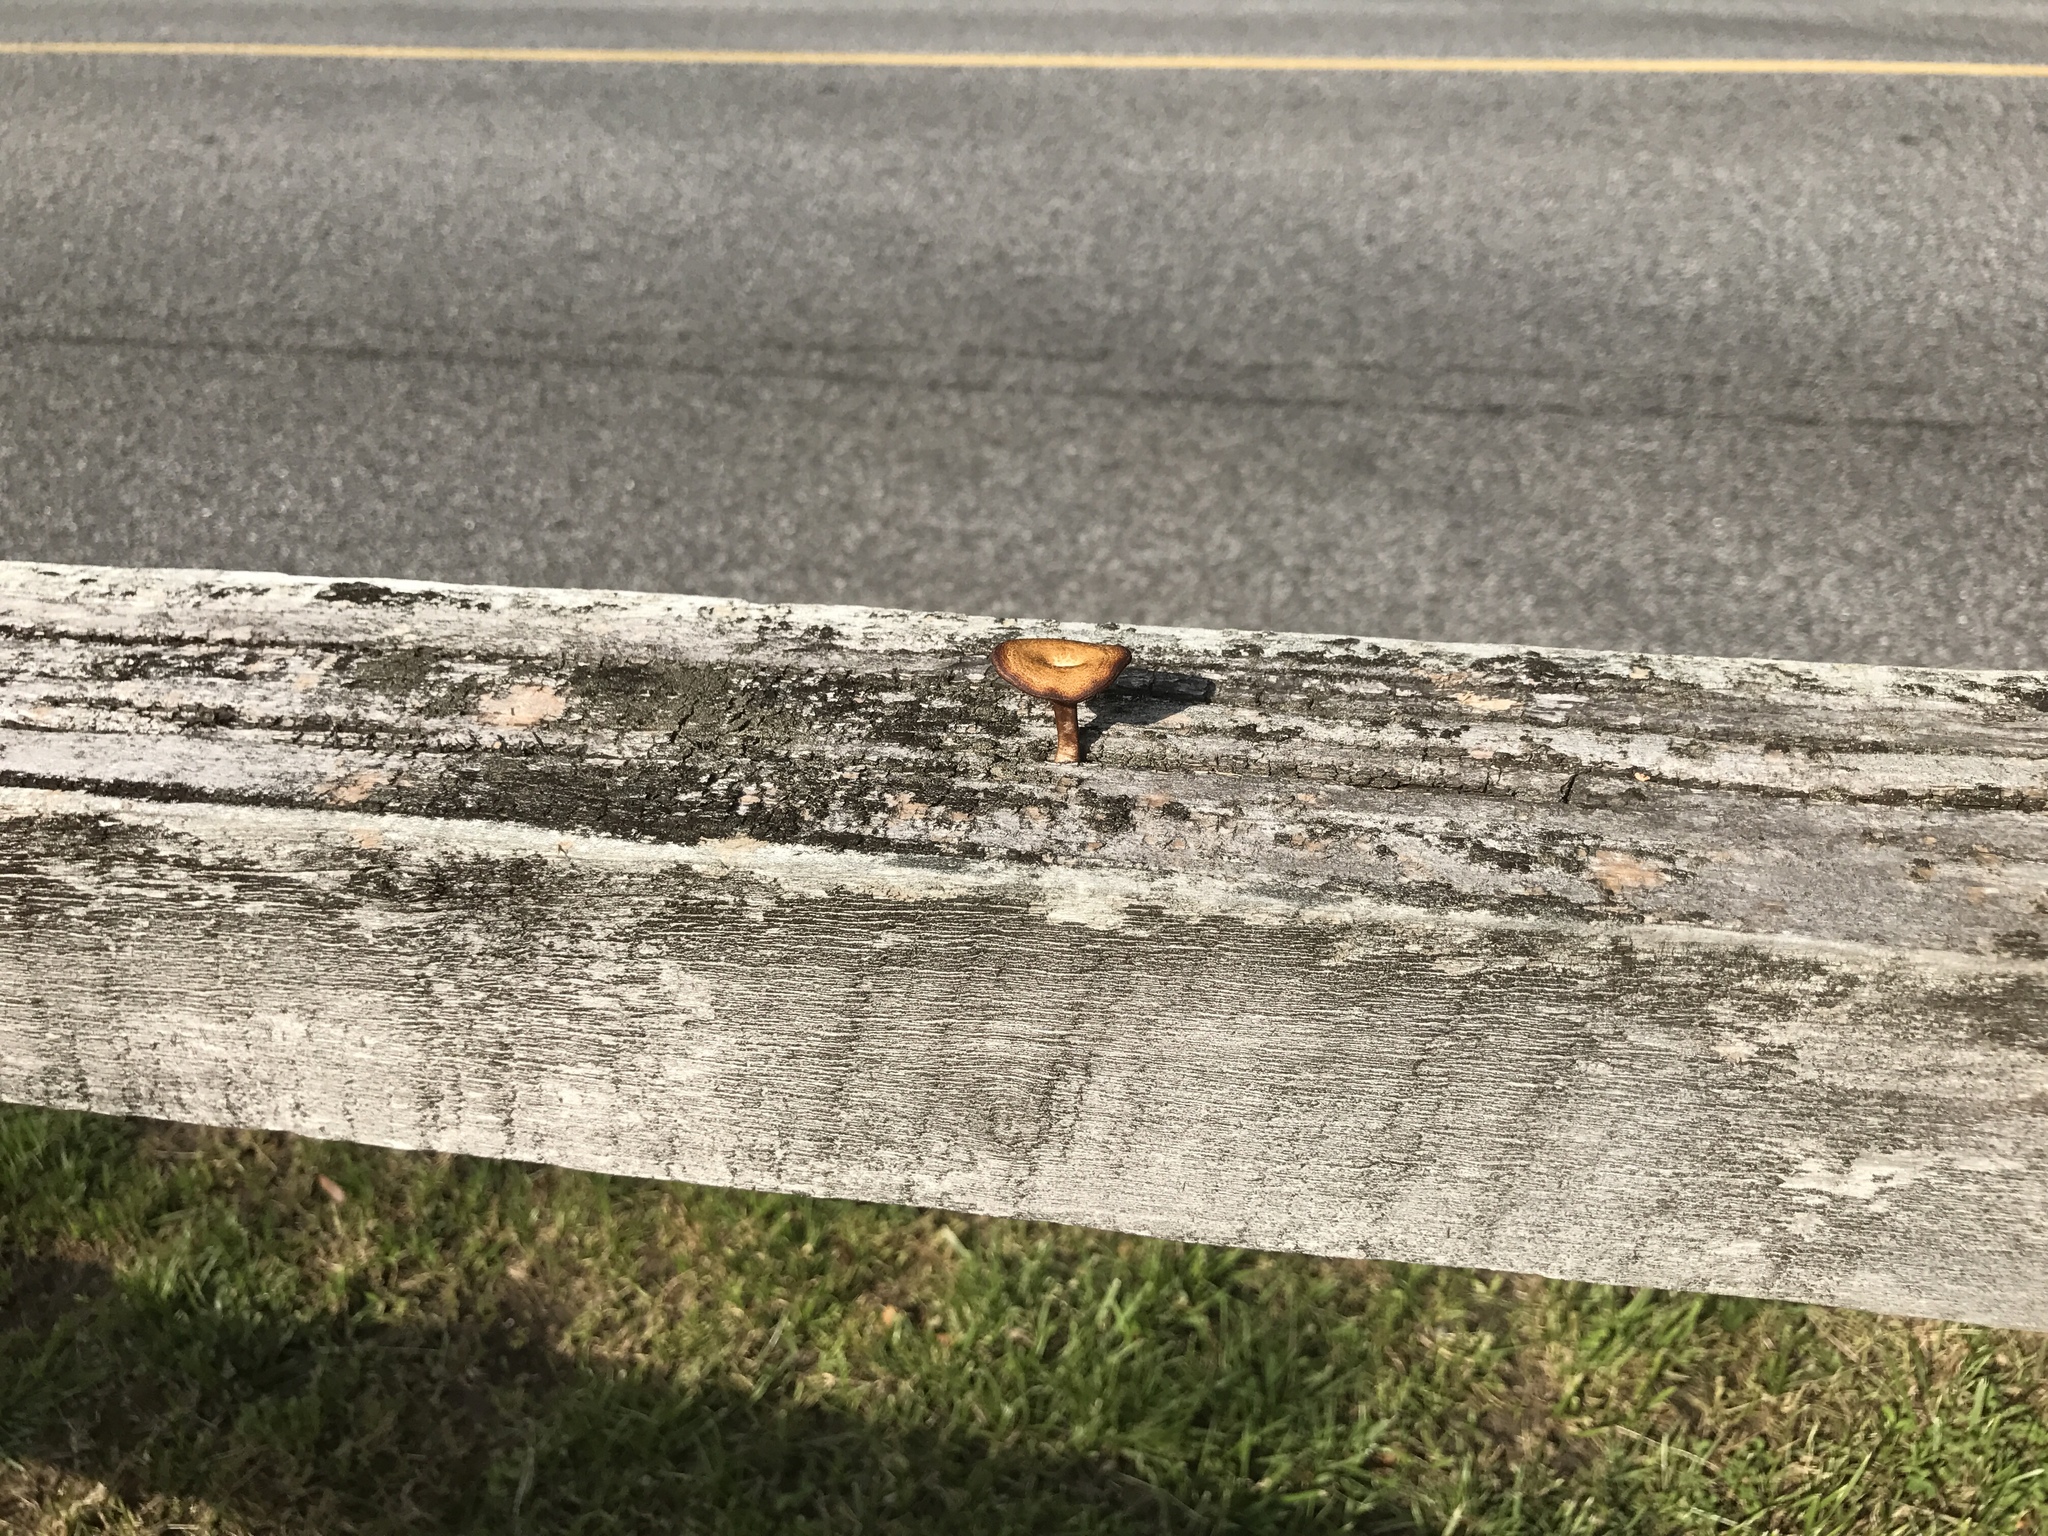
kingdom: Fungi
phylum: Basidiomycota
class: Agaricomycetes
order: Polyporales
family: Polyporaceae
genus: Lentinus
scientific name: Lentinus arcularius
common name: Spring polypore
